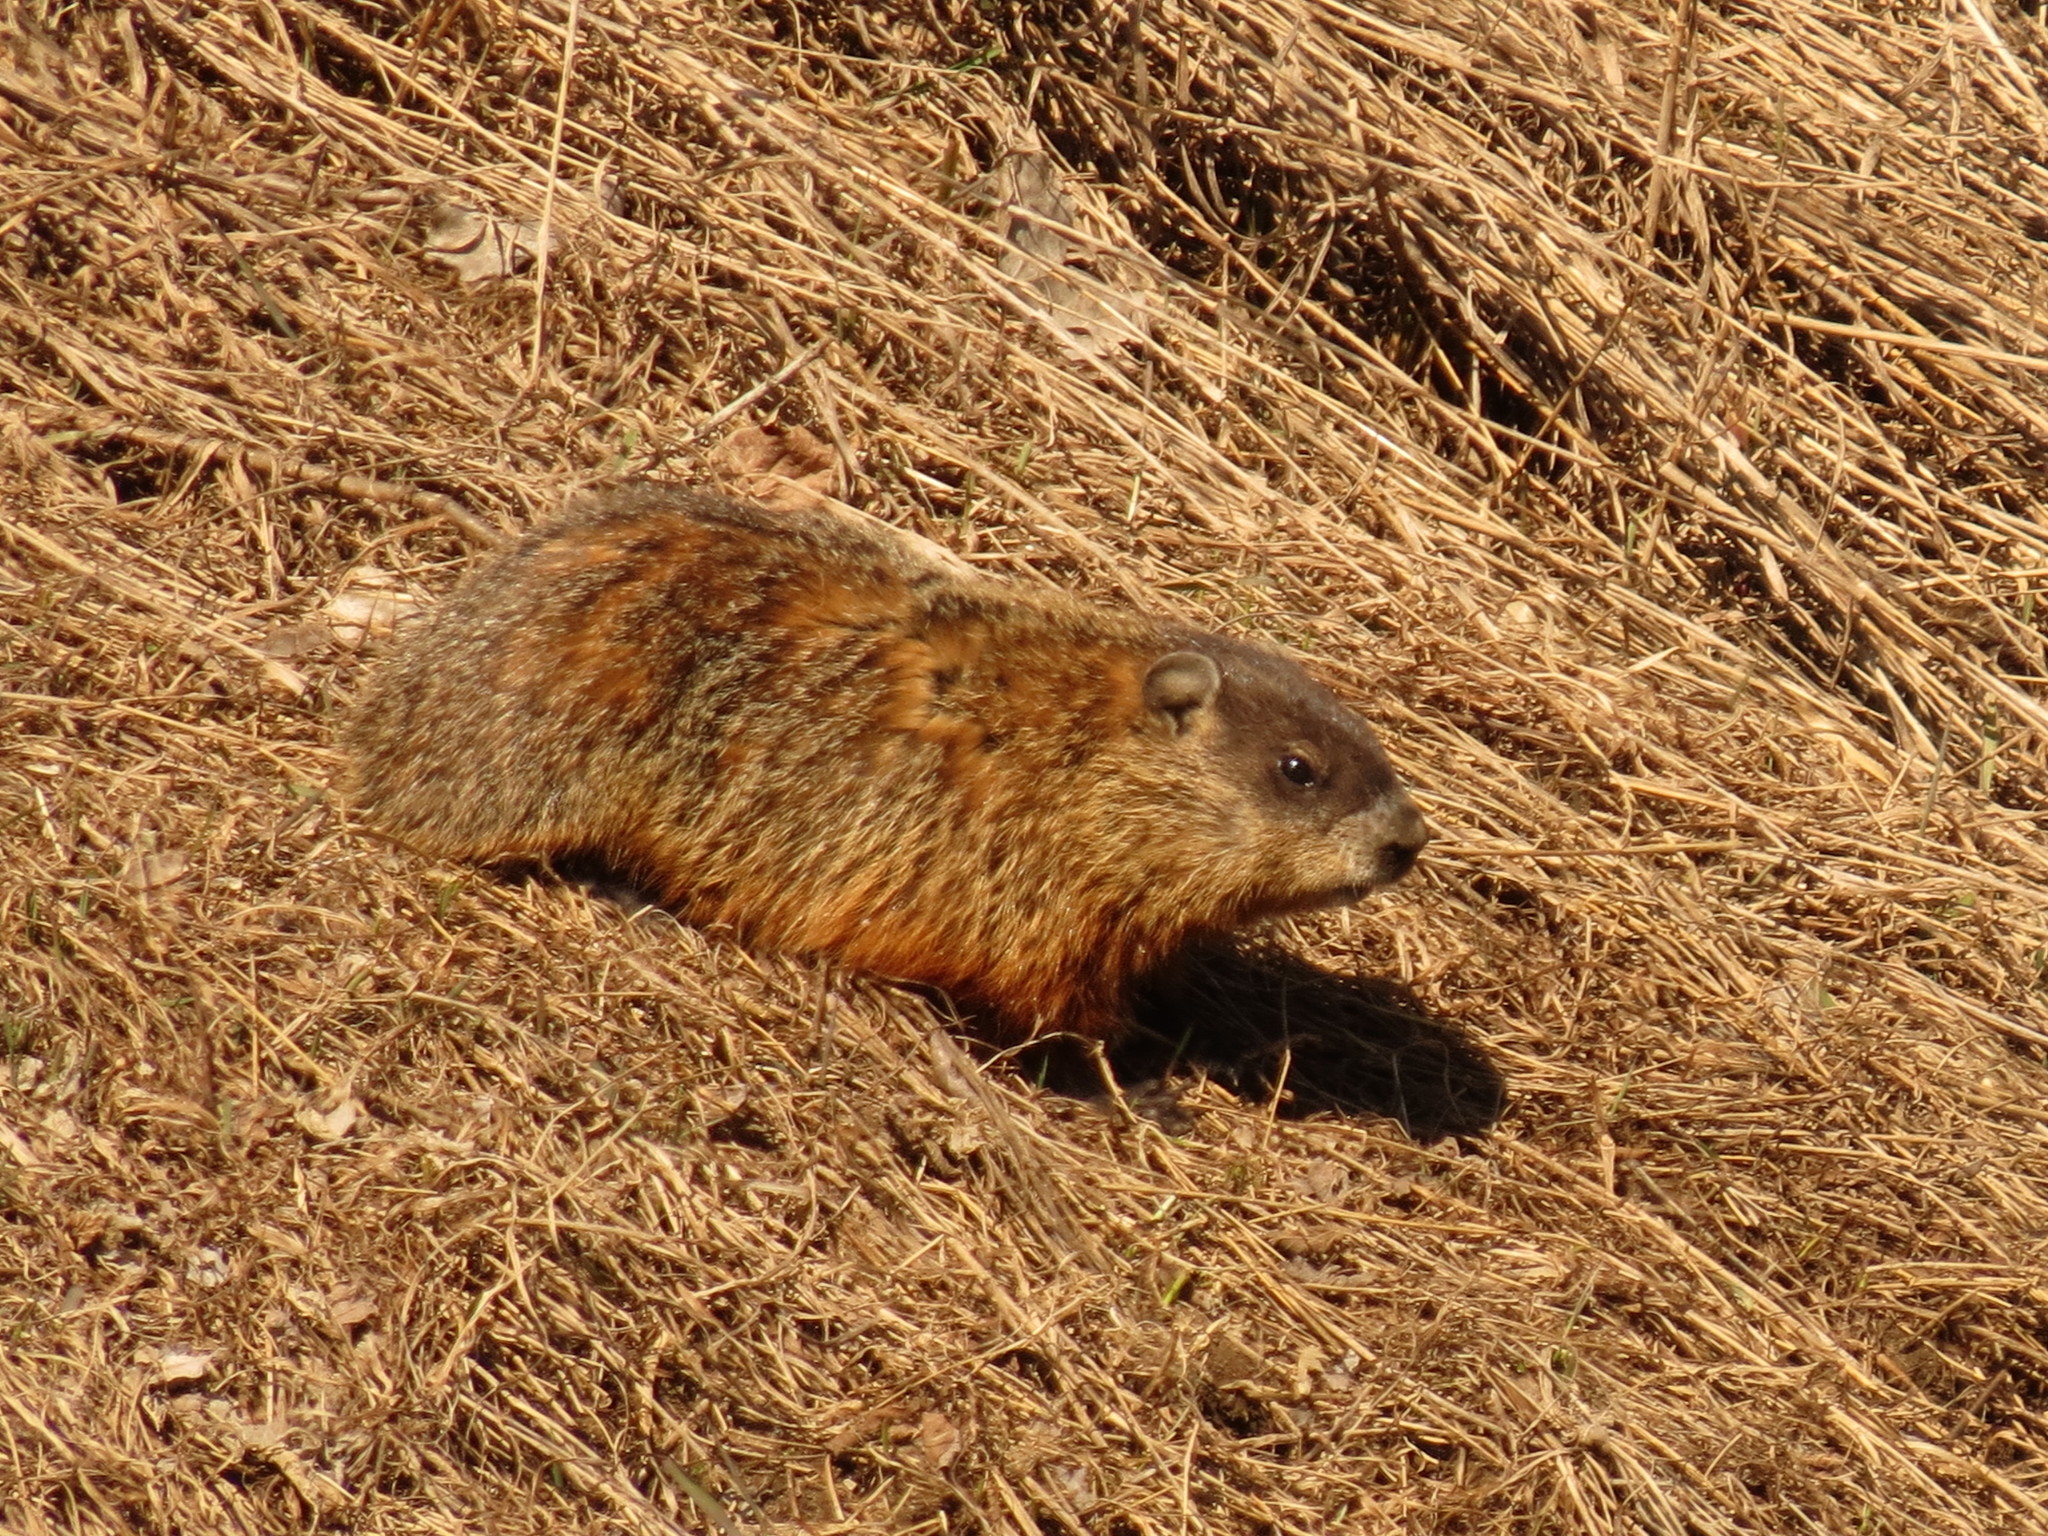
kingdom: Animalia
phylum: Chordata
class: Mammalia
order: Rodentia
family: Sciuridae
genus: Marmota
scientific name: Marmota monax
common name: Groundhog
